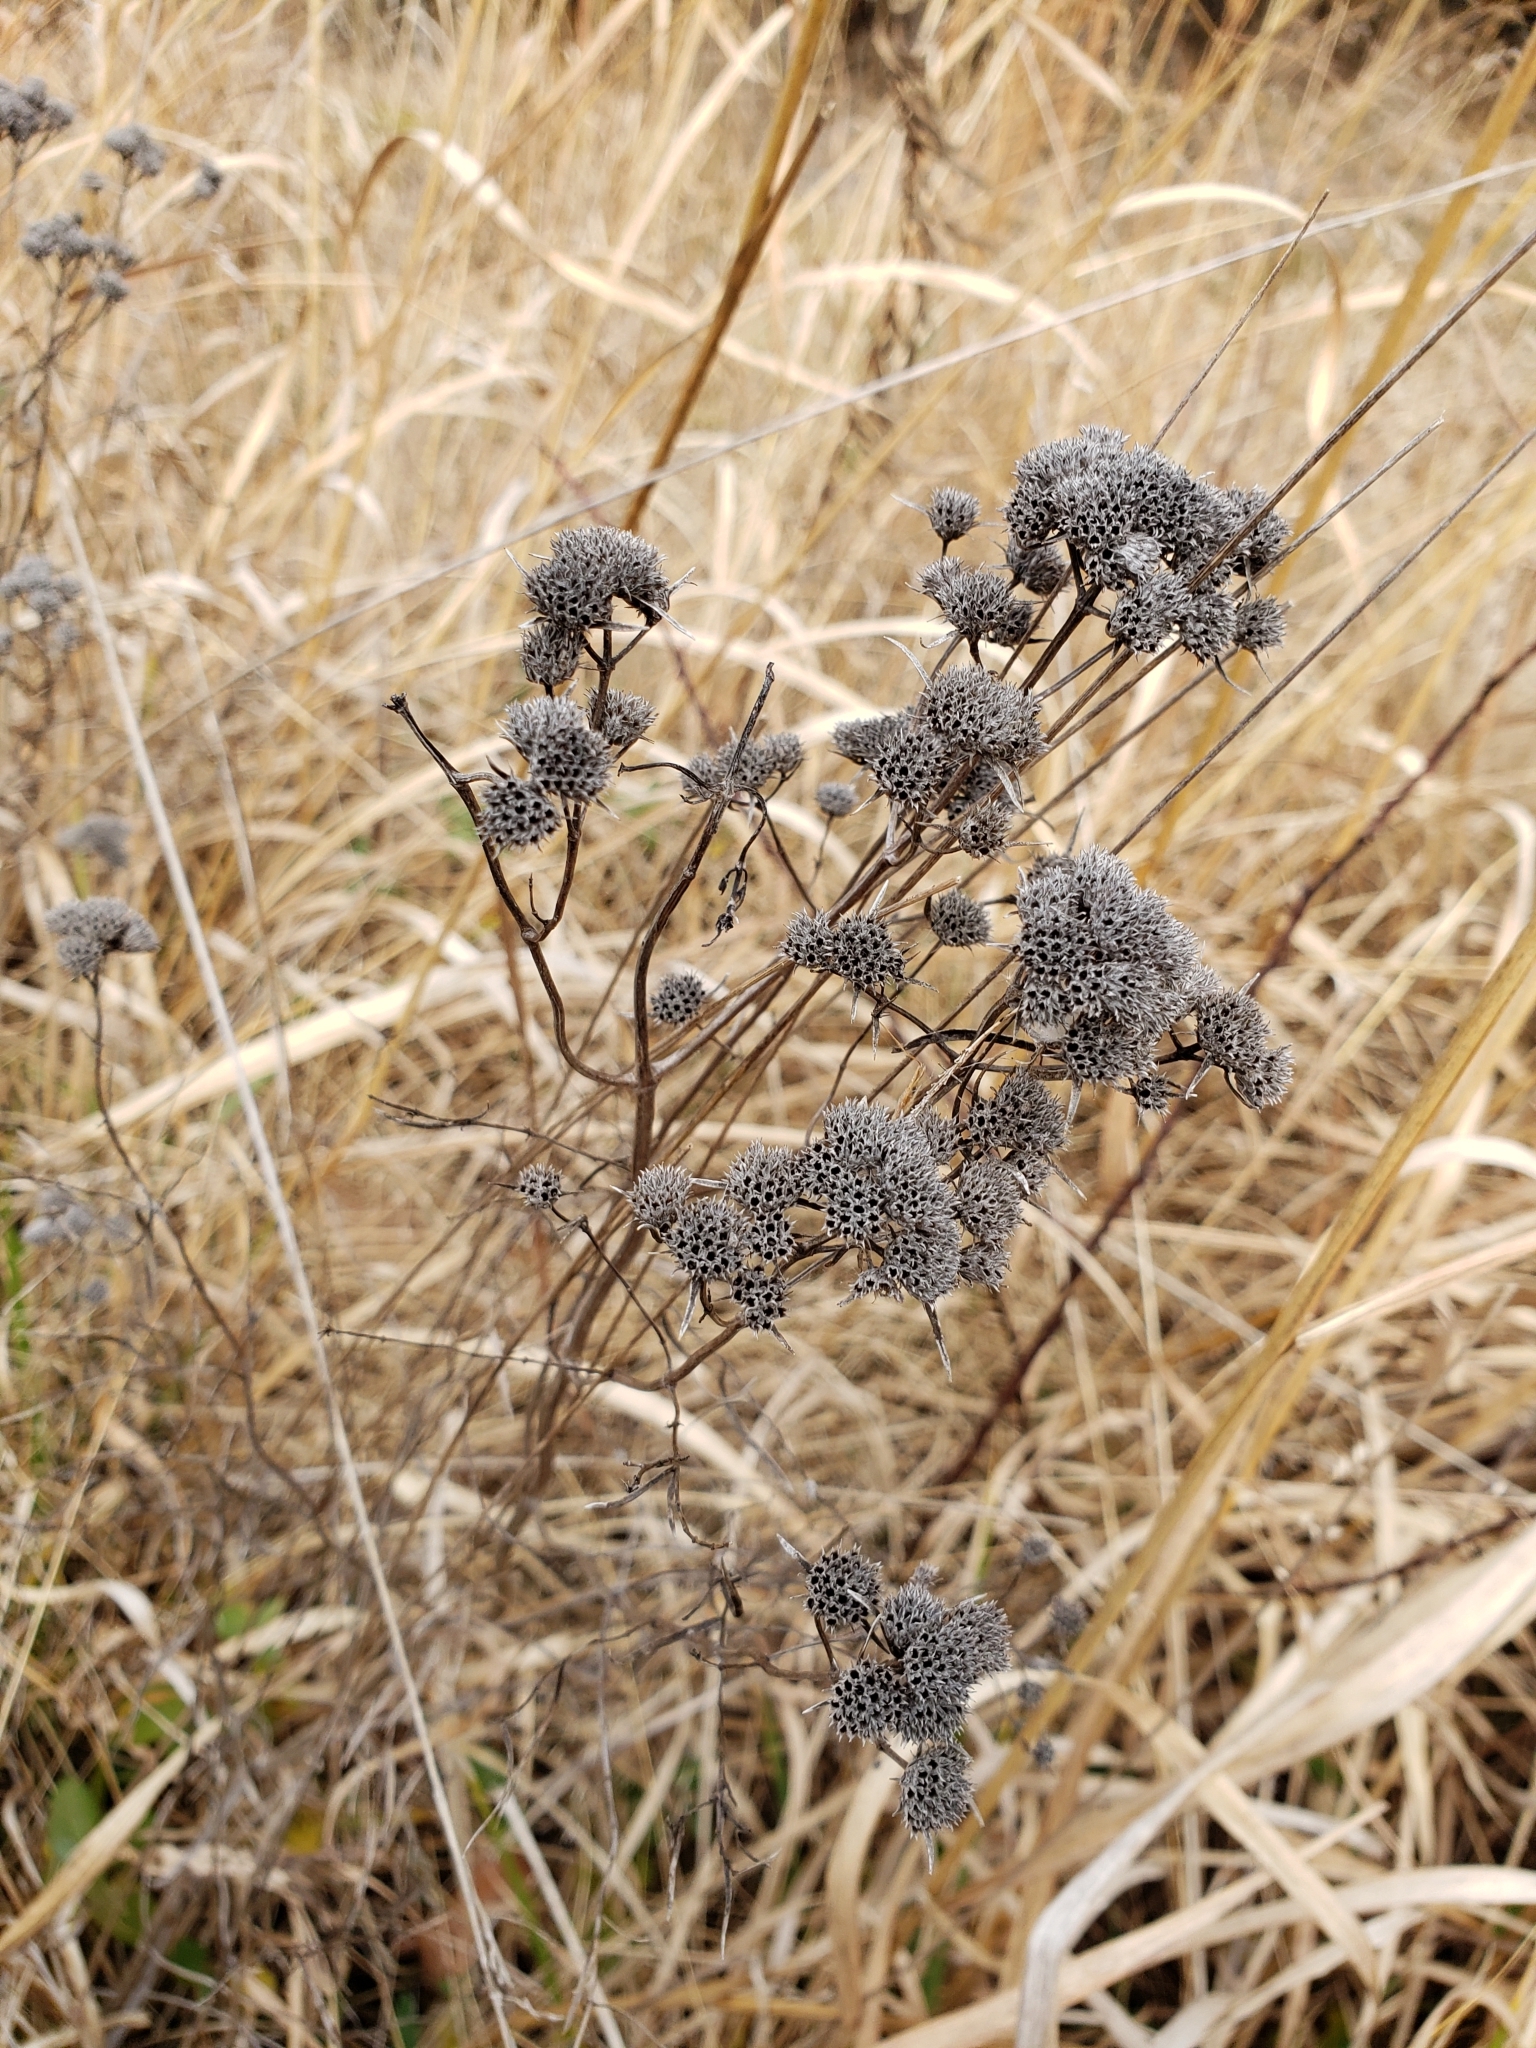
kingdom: Plantae
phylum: Tracheophyta
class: Magnoliopsida
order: Lamiales
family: Lamiaceae
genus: Pycnanthemum
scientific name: Pycnanthemum tenuifolium
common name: Narrow-leaf mountain-mint
